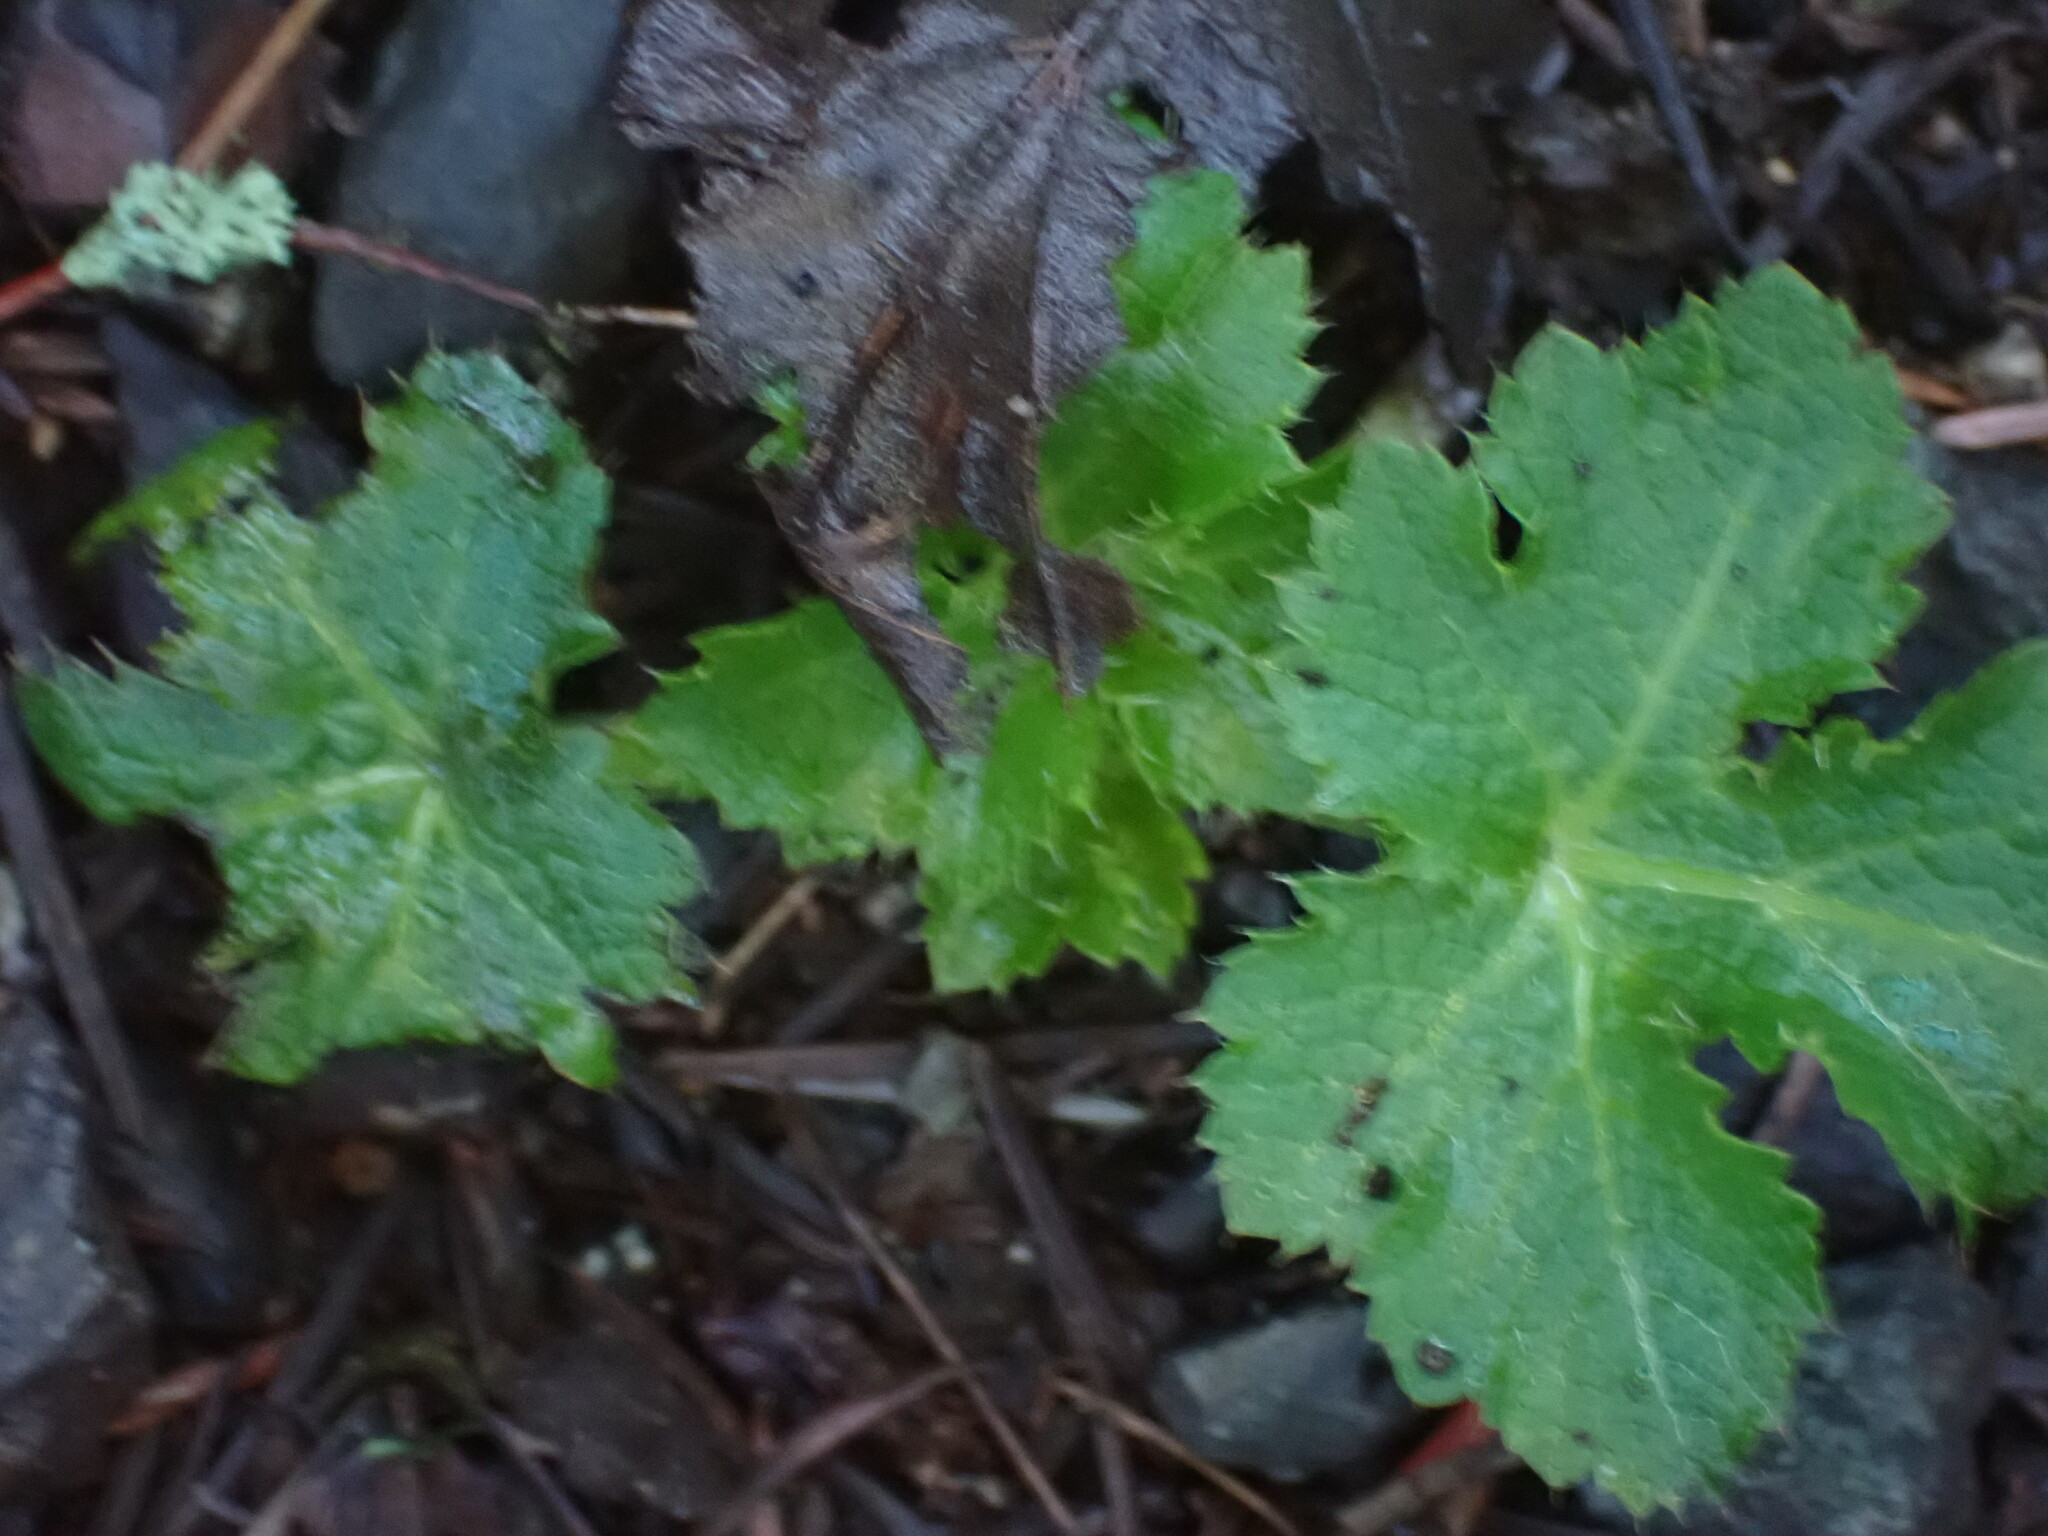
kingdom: Plantae
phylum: Tracheophyta
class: Magnoliopsida
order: Apiales
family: Apiaceae
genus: Sanicula
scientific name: Sanicula crassicaulis
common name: Western snakeroot
